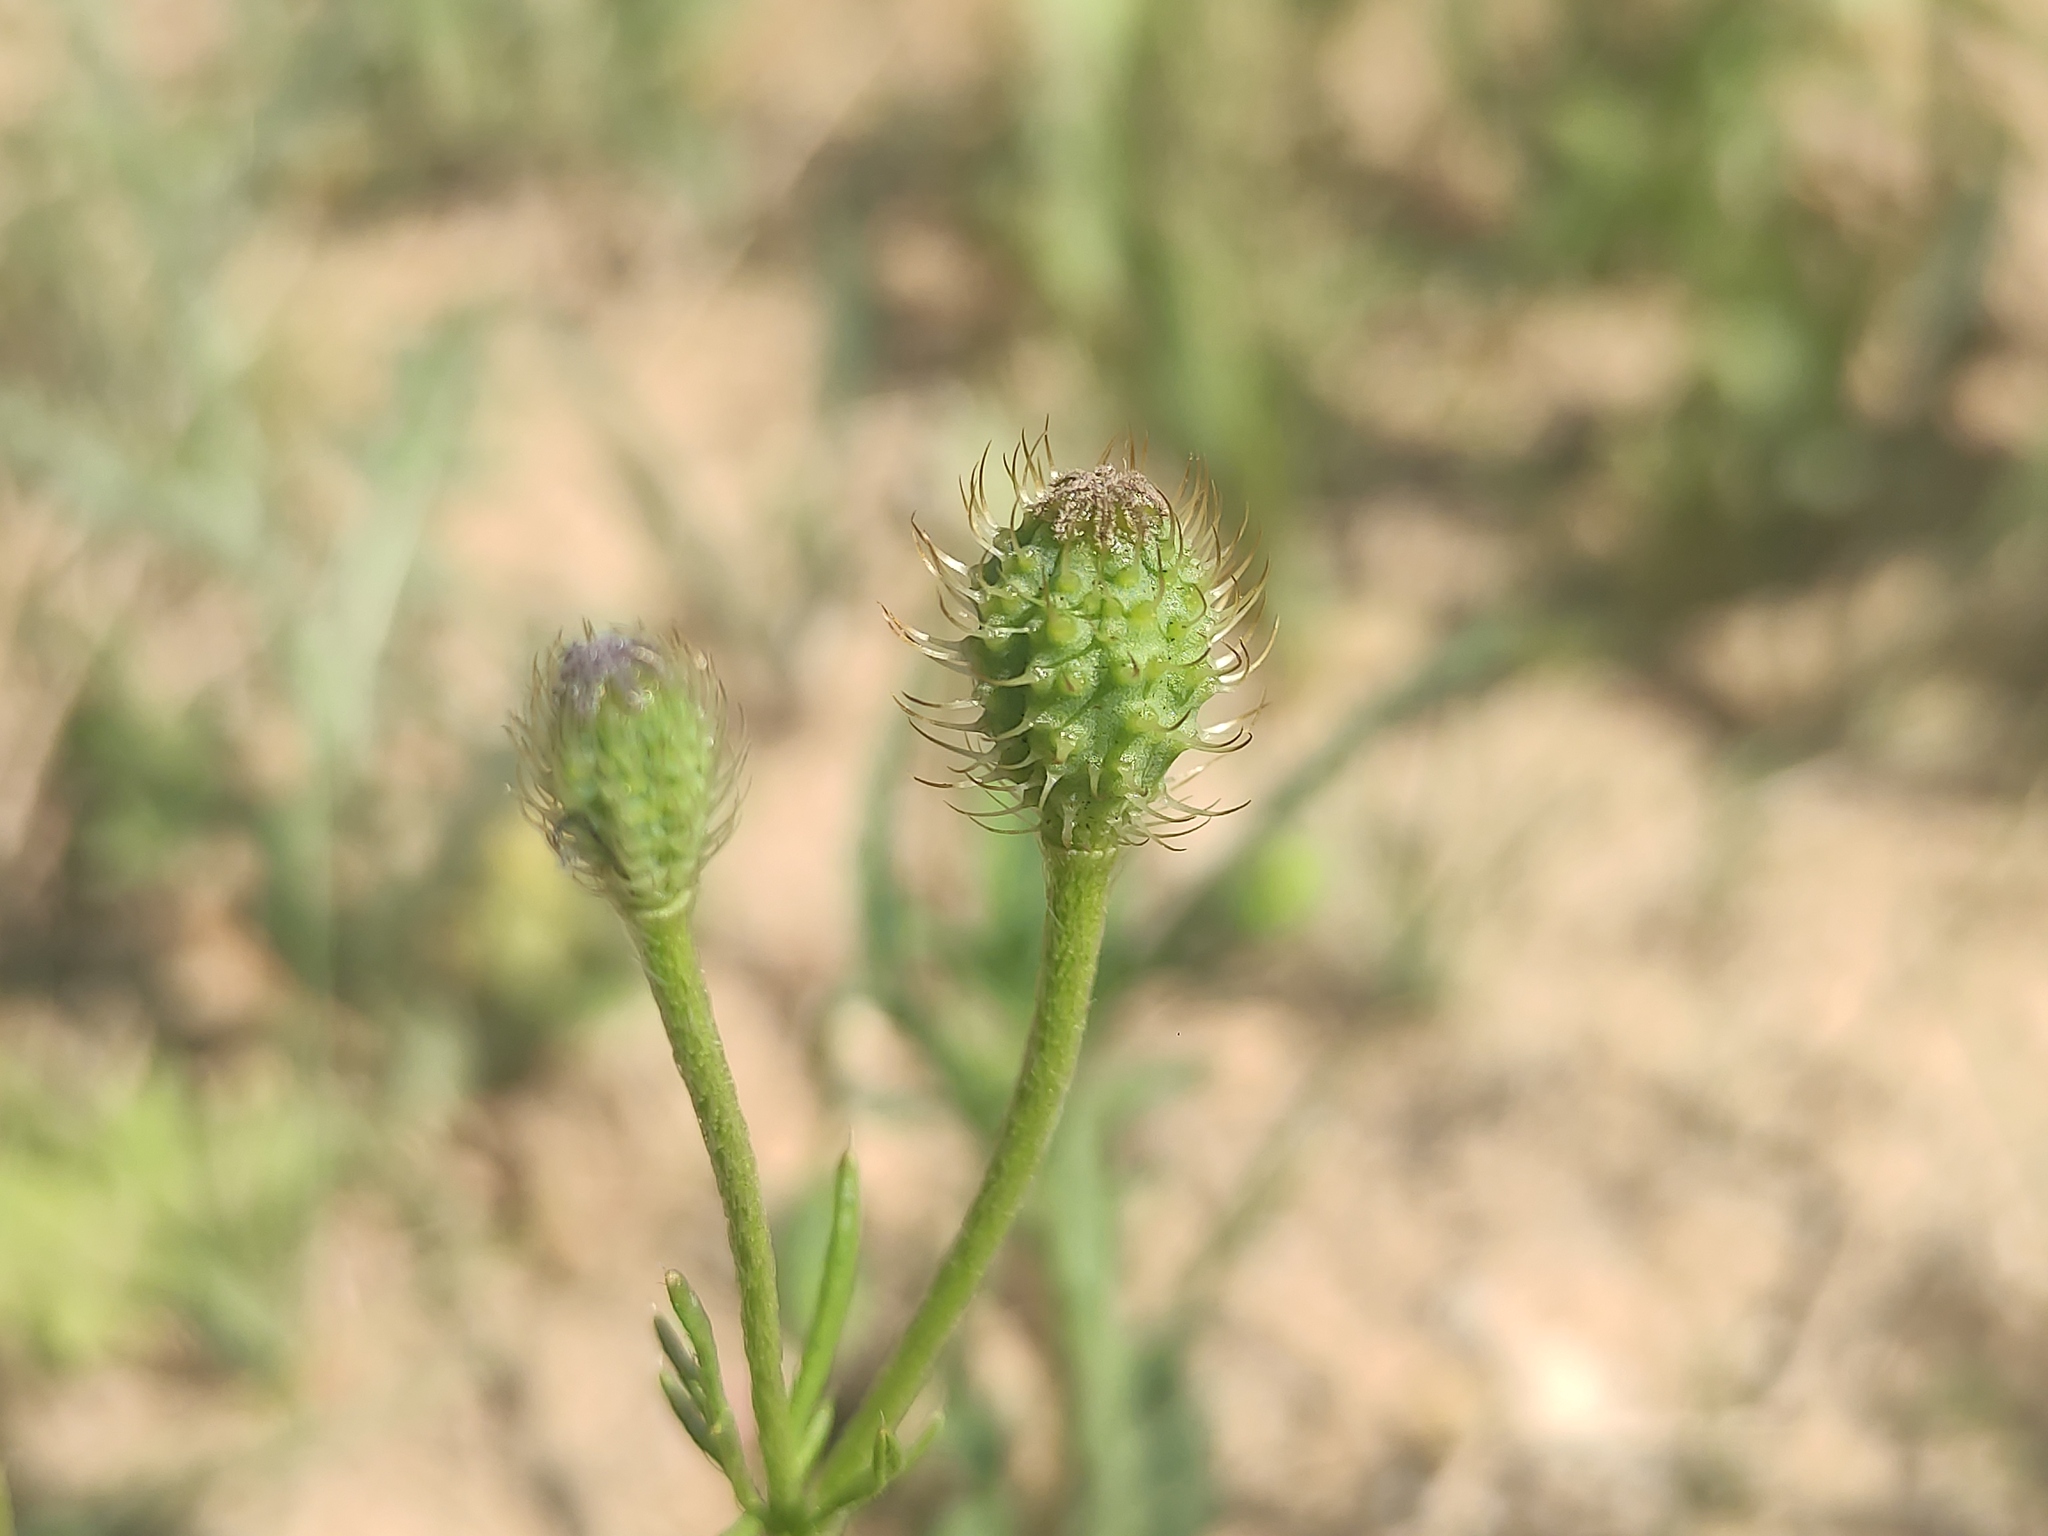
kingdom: Plantae
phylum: Tracheophyta
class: Magnoliopsida
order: Ranunculales
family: Papaveraceae
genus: Roemeria
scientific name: Roemeria hispida
